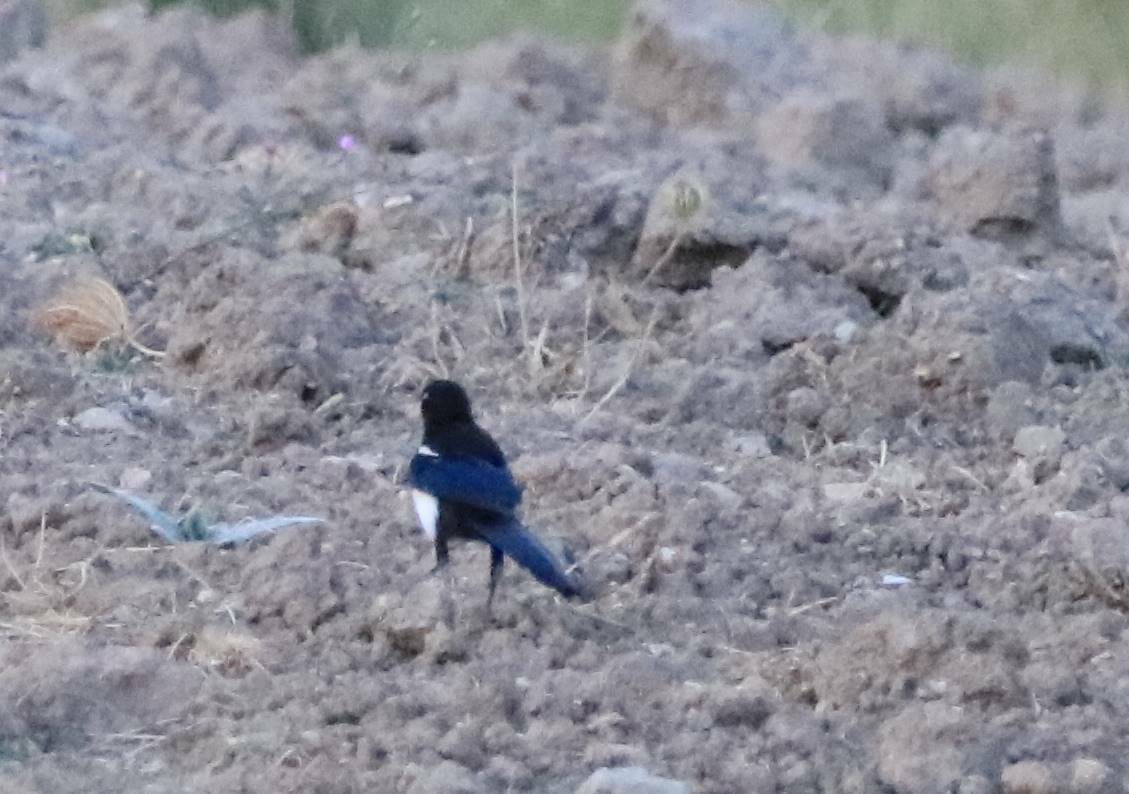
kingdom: Animalia
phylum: Chordata
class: Aves
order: Passeriformes
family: Corvidae
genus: Pica
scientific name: Pica mauritanica
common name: Maghreb magpie
